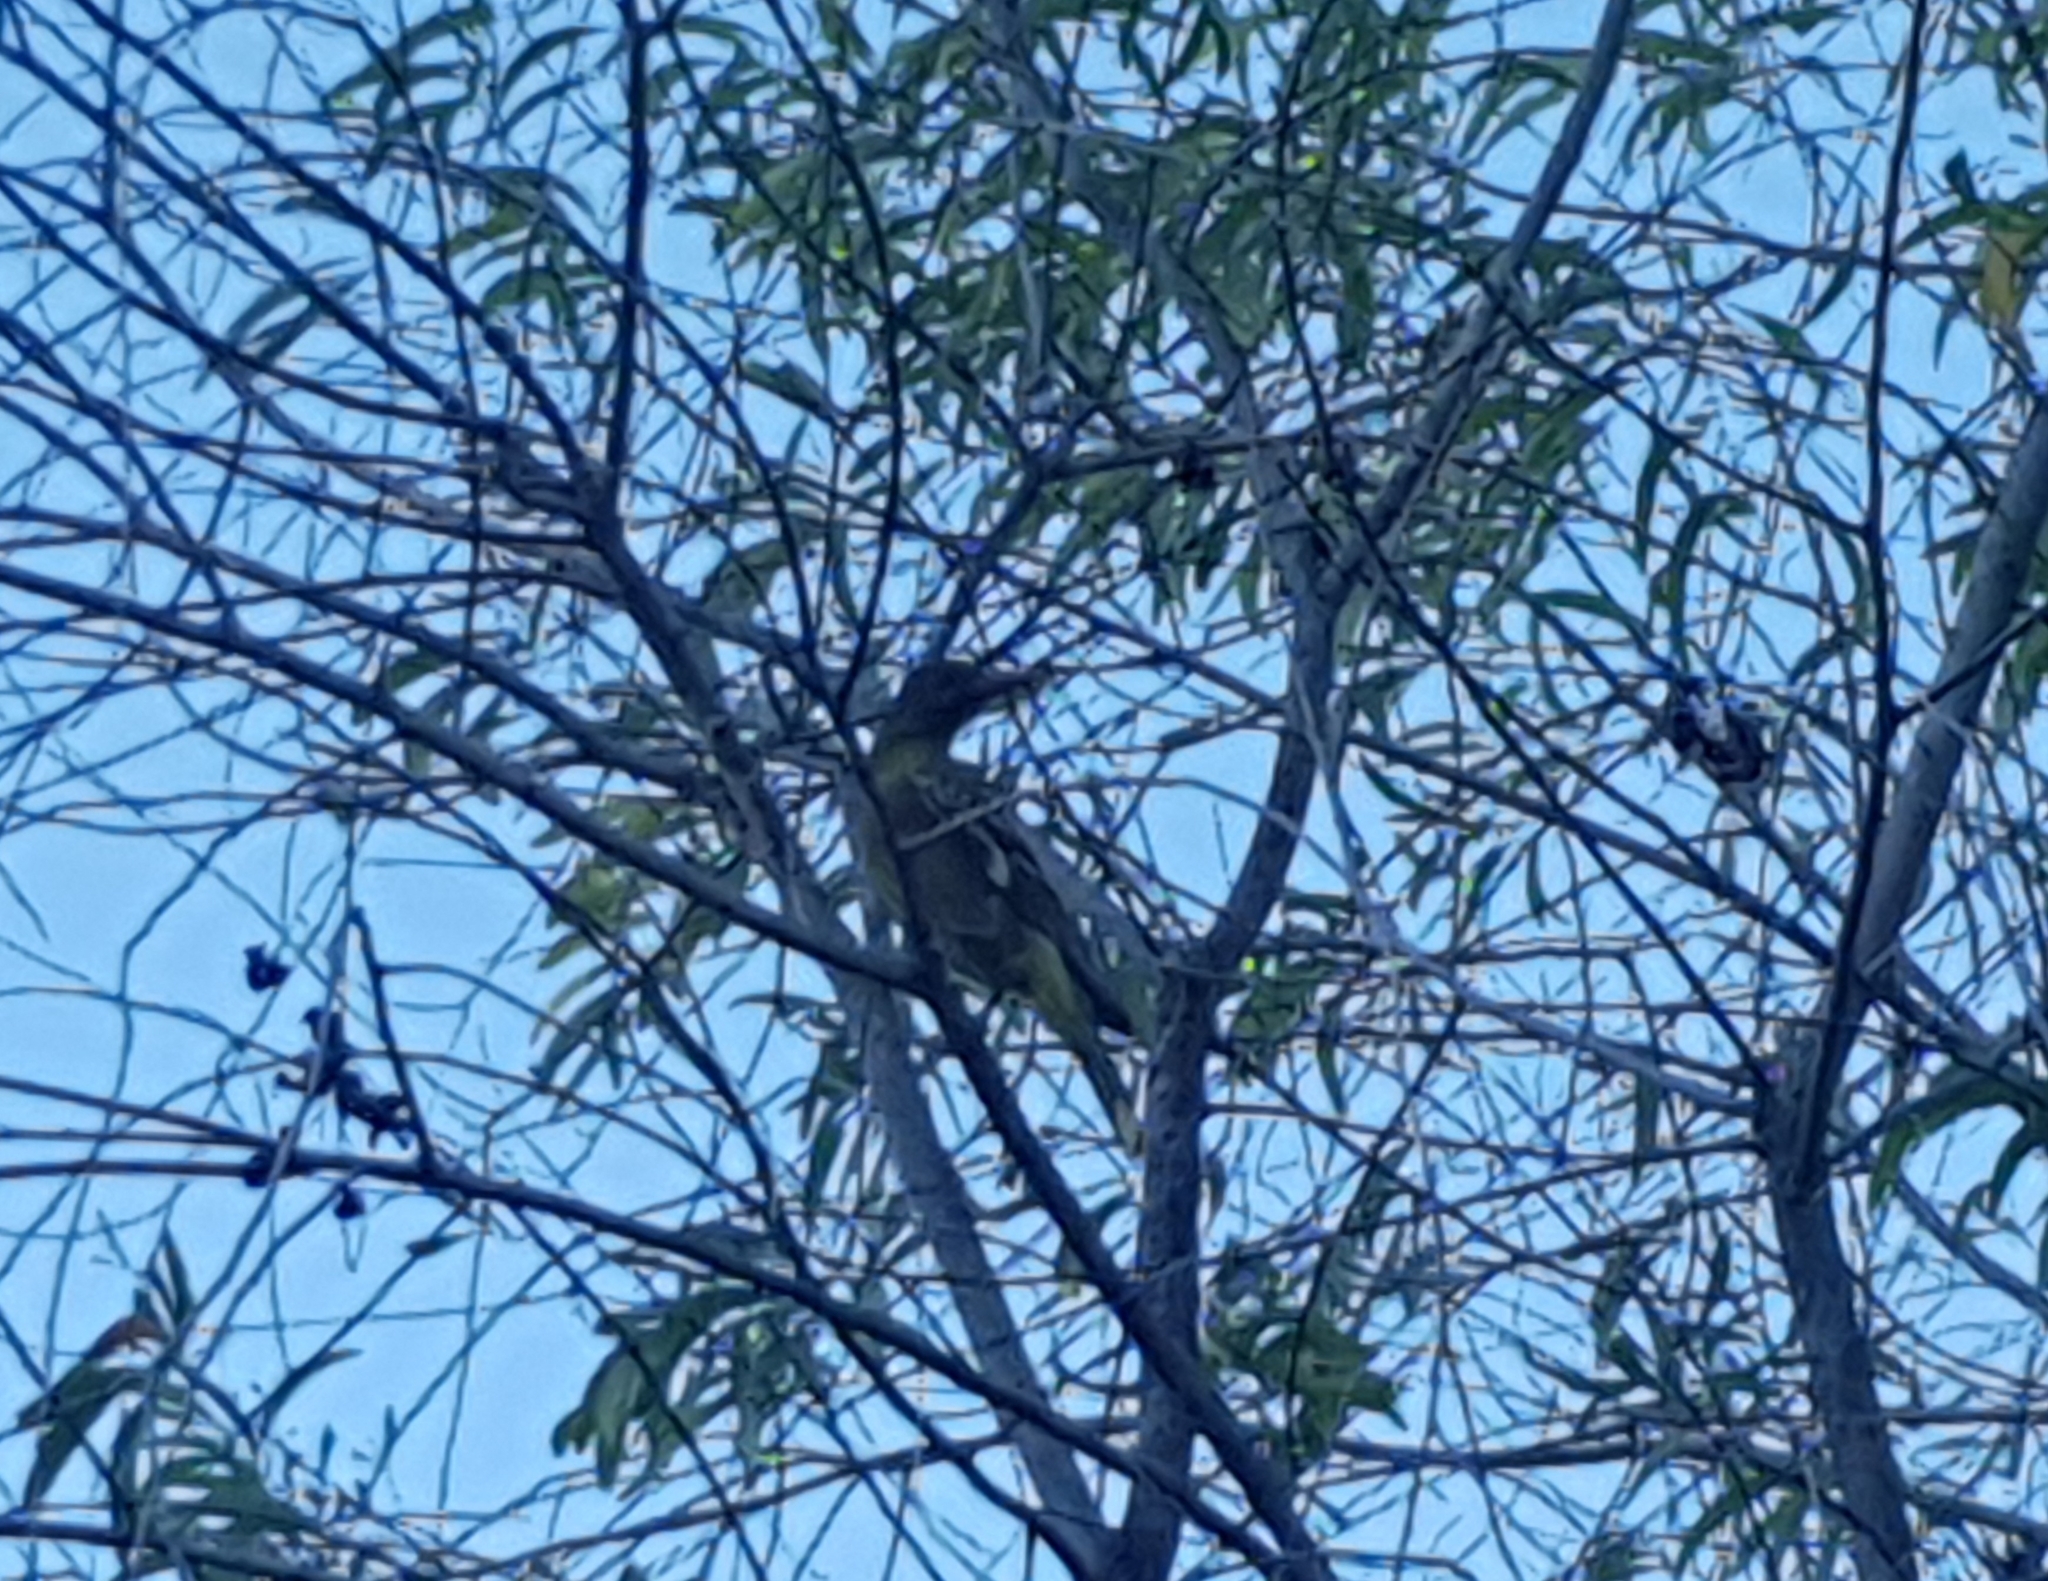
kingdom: Animalia
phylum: Chordata
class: Aves
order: Passeriformes
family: Oriolidae
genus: Oriolus
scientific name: Oriolus flavocinctus
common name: Green oriole
